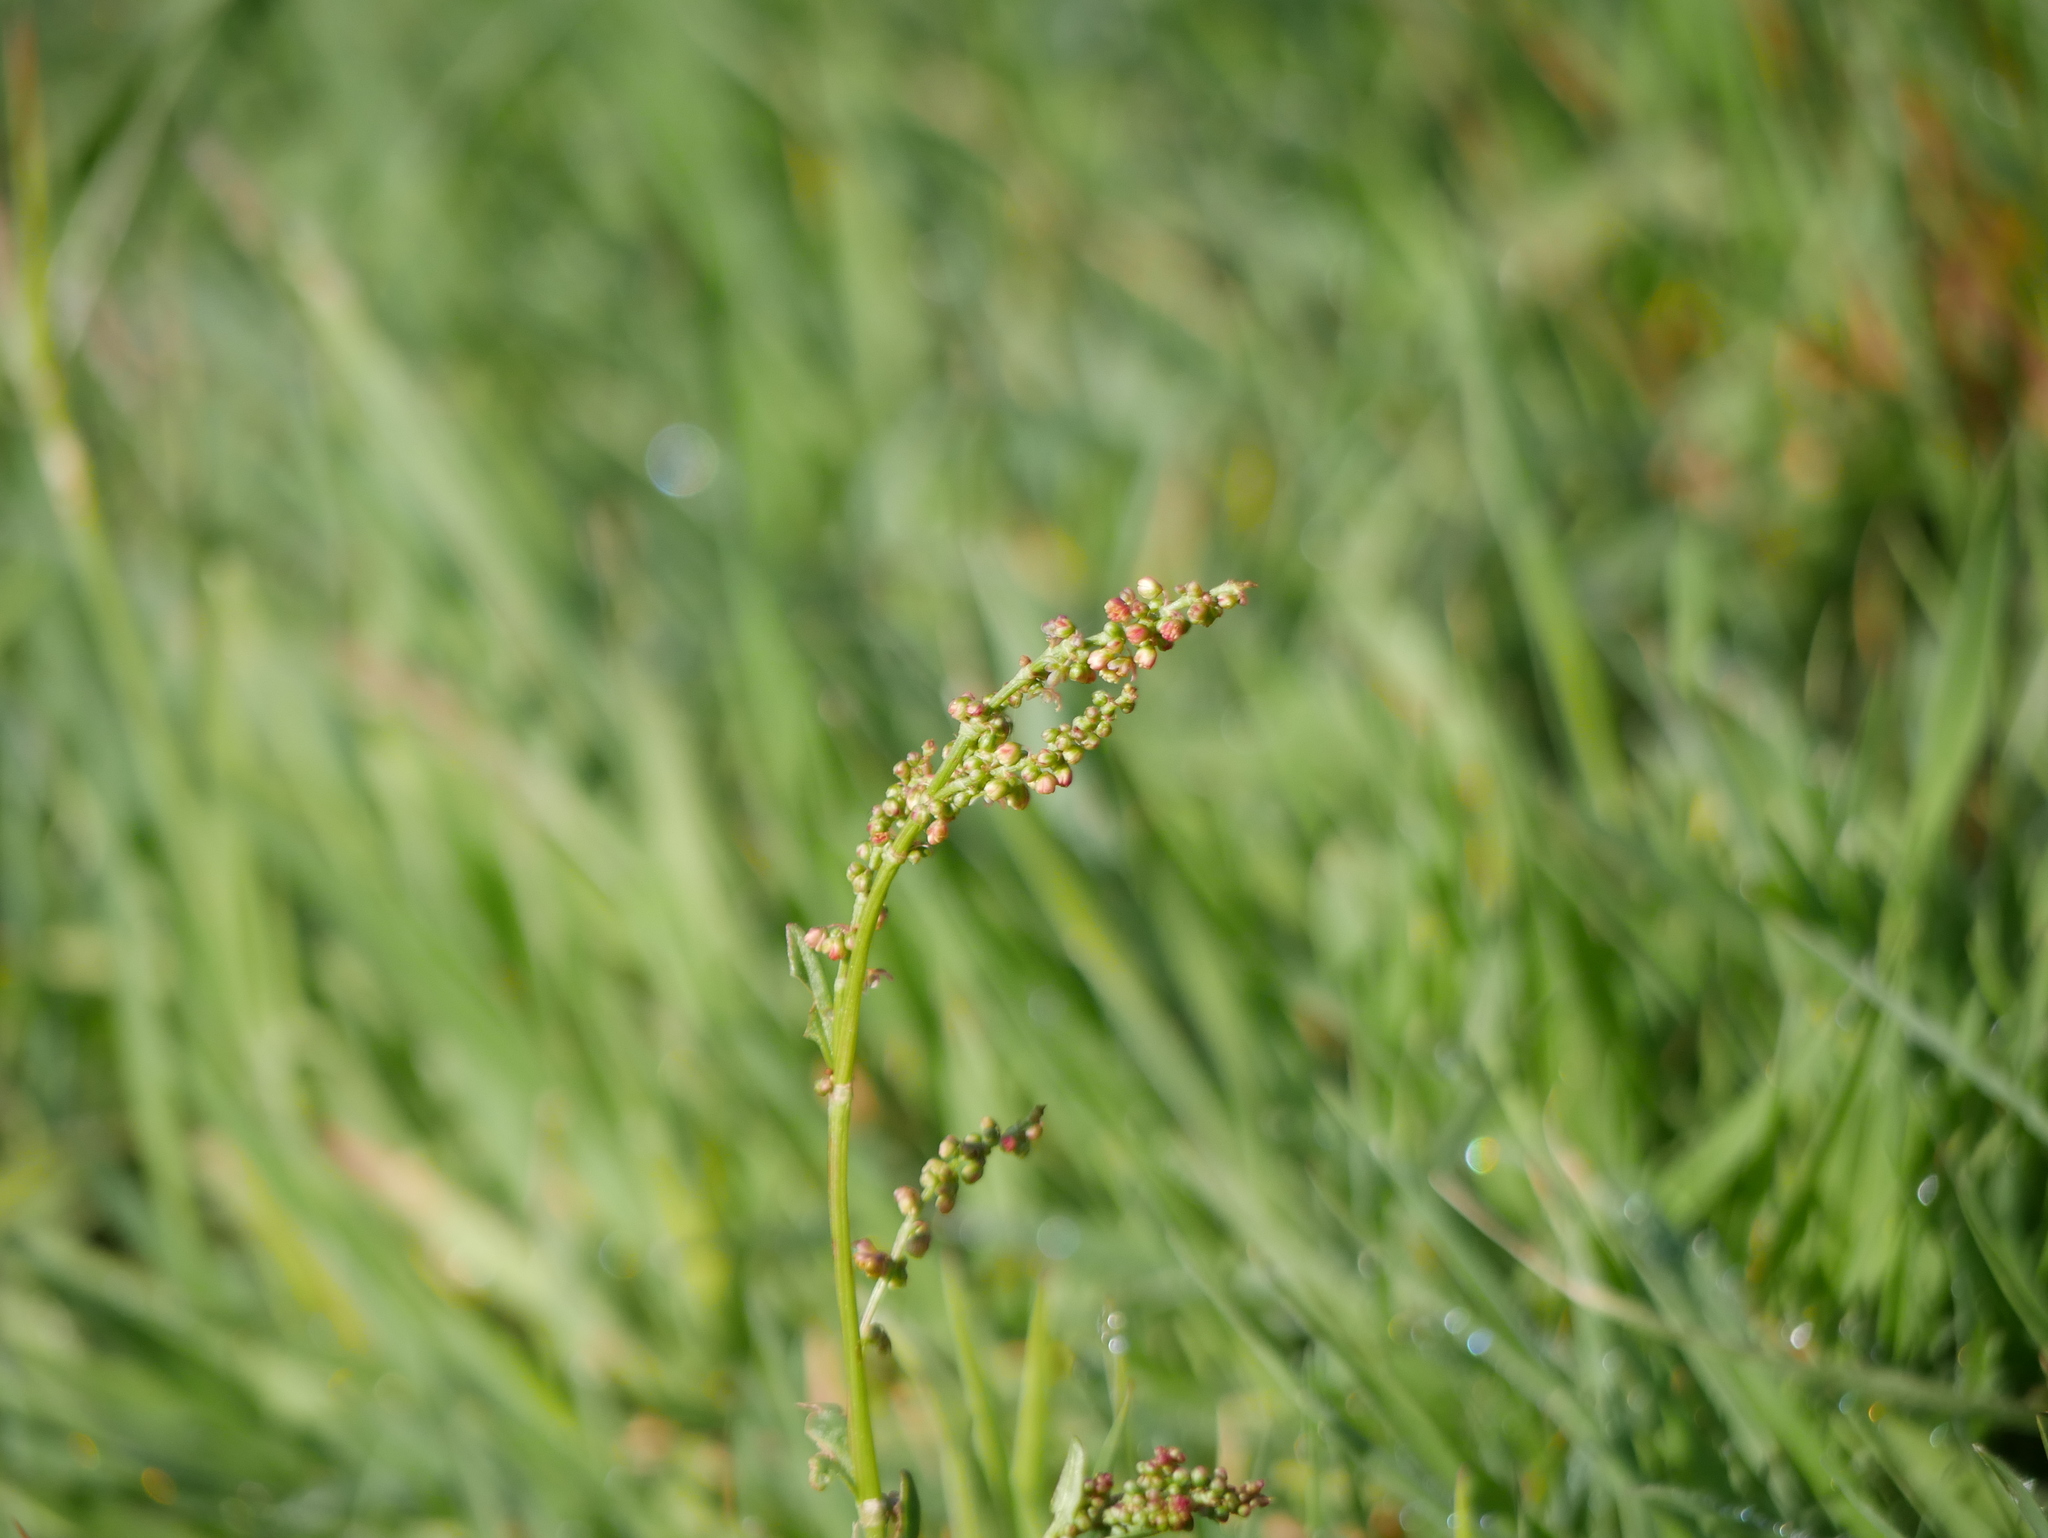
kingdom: Plantae
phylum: Tracheophyta
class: Magnoliopsida
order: Caryophyllales
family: Polygonaceae
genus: Rumex
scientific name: Rumex acetosa
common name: Garden sorrel
